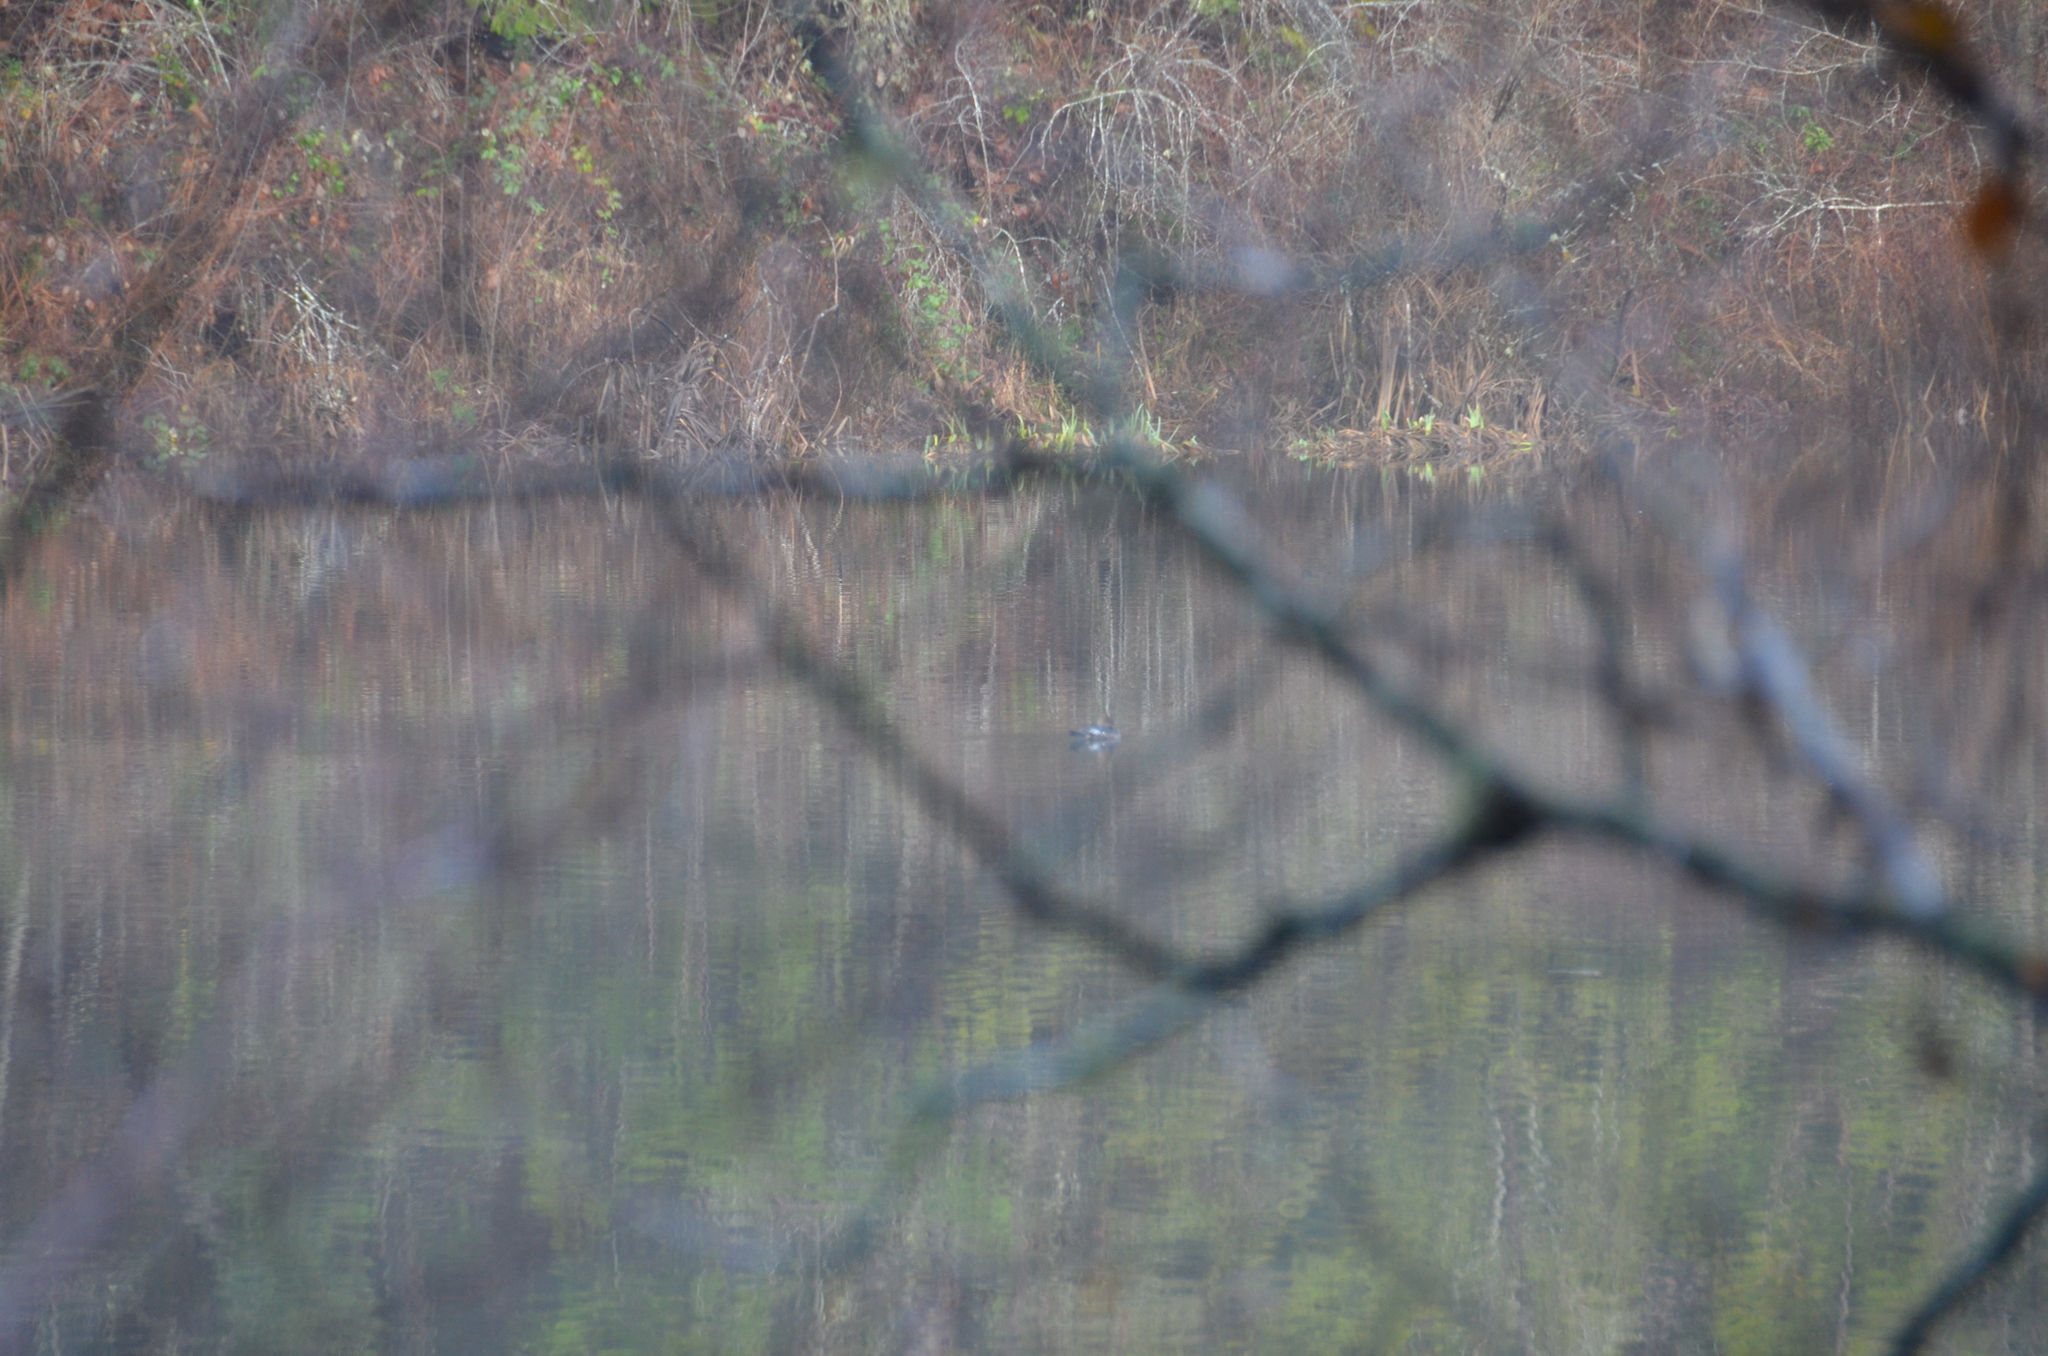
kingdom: Animalia
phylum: Chordata
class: Aves
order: Anseriformes
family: Anatidae
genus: Lophodytes
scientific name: Lophodytes cucullatus
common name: Hooded merganser
